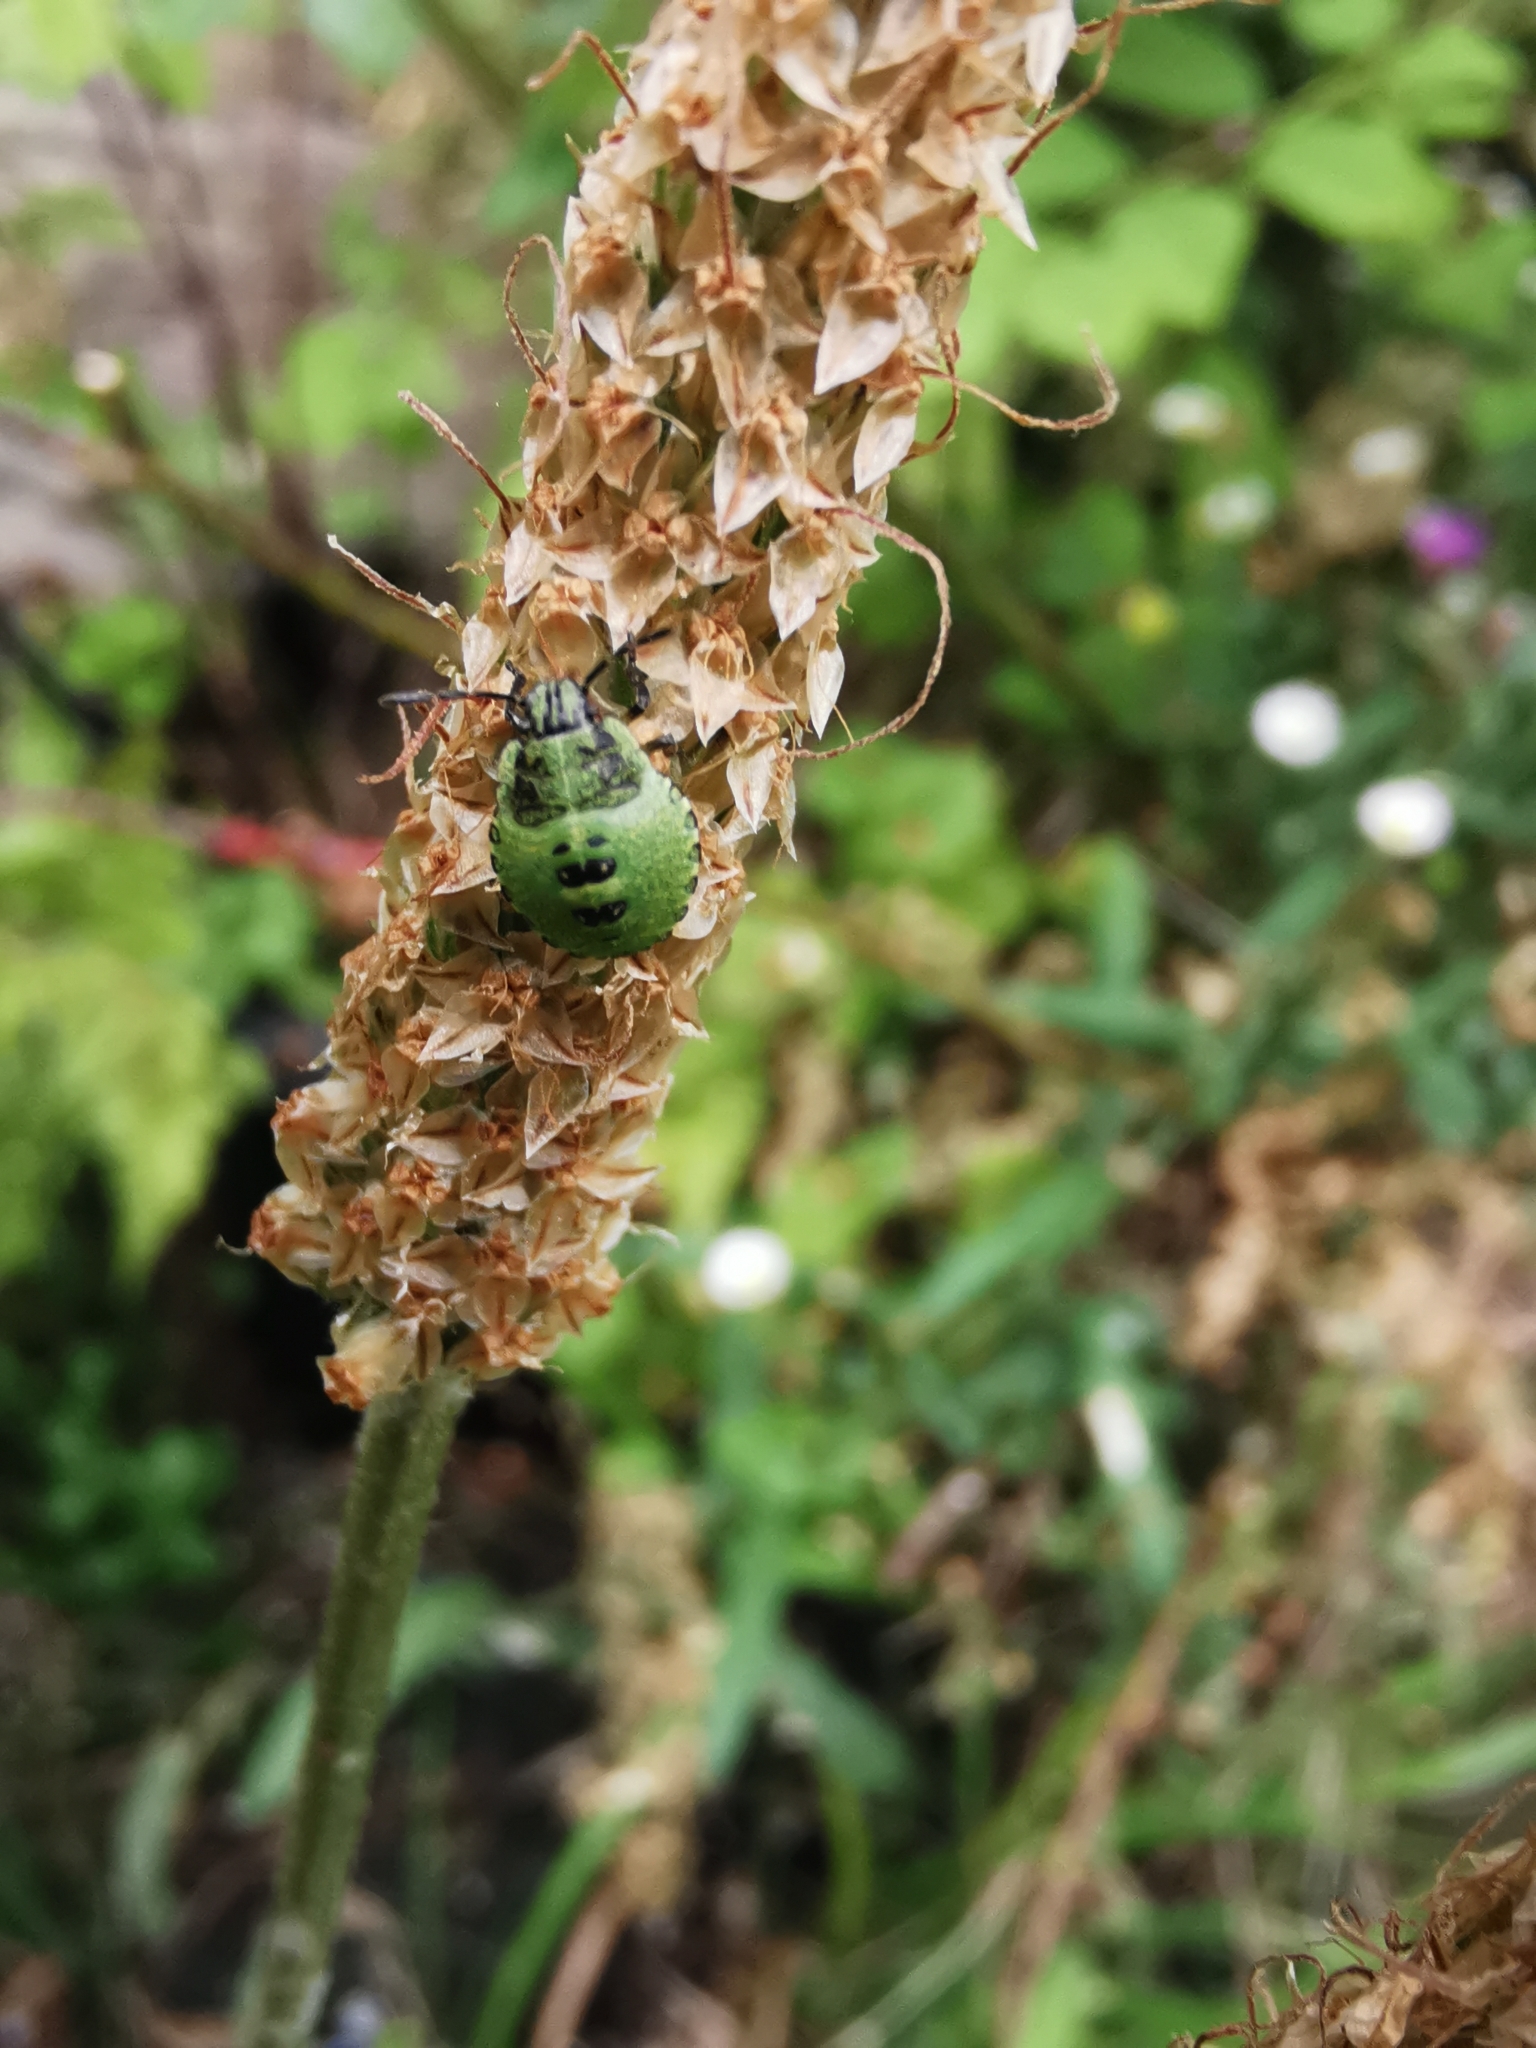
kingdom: Animalia
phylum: Arthropoda
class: Insecta
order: Hemiptera
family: Pentatomidae
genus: Palomena
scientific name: Palomena prasina
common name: Green shieldbug
